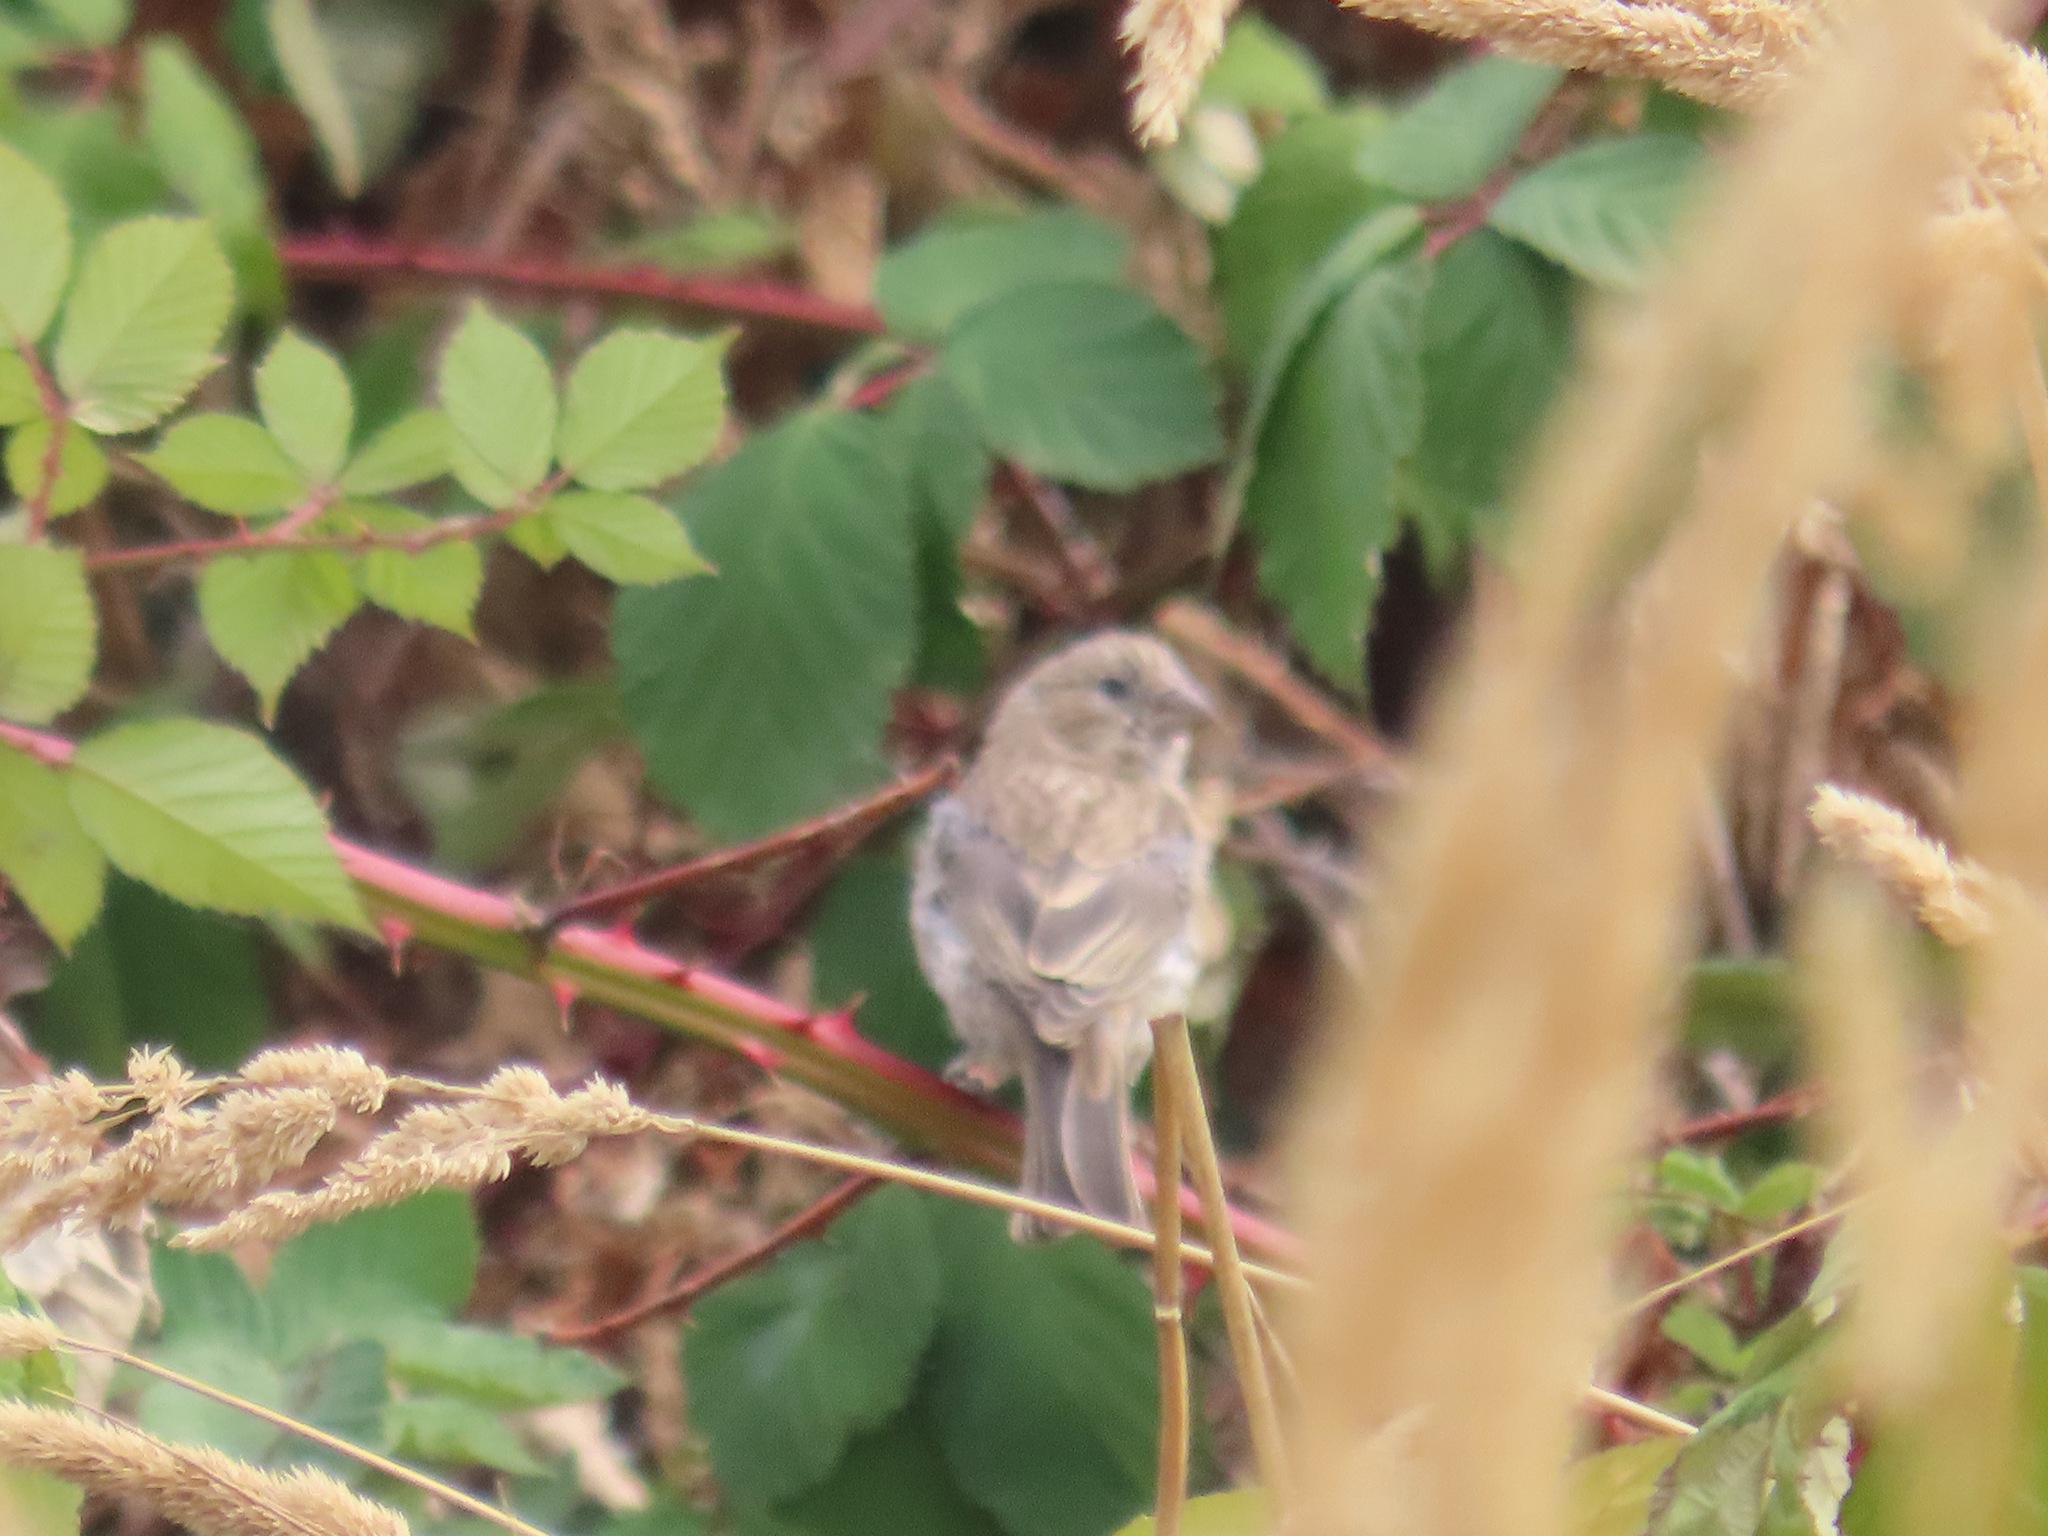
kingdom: Animalia
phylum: Chordata
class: Aves
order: Passeriformes
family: Fringillidae
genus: Haemorhous
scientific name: Haemorhous mexicanus
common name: House finch
